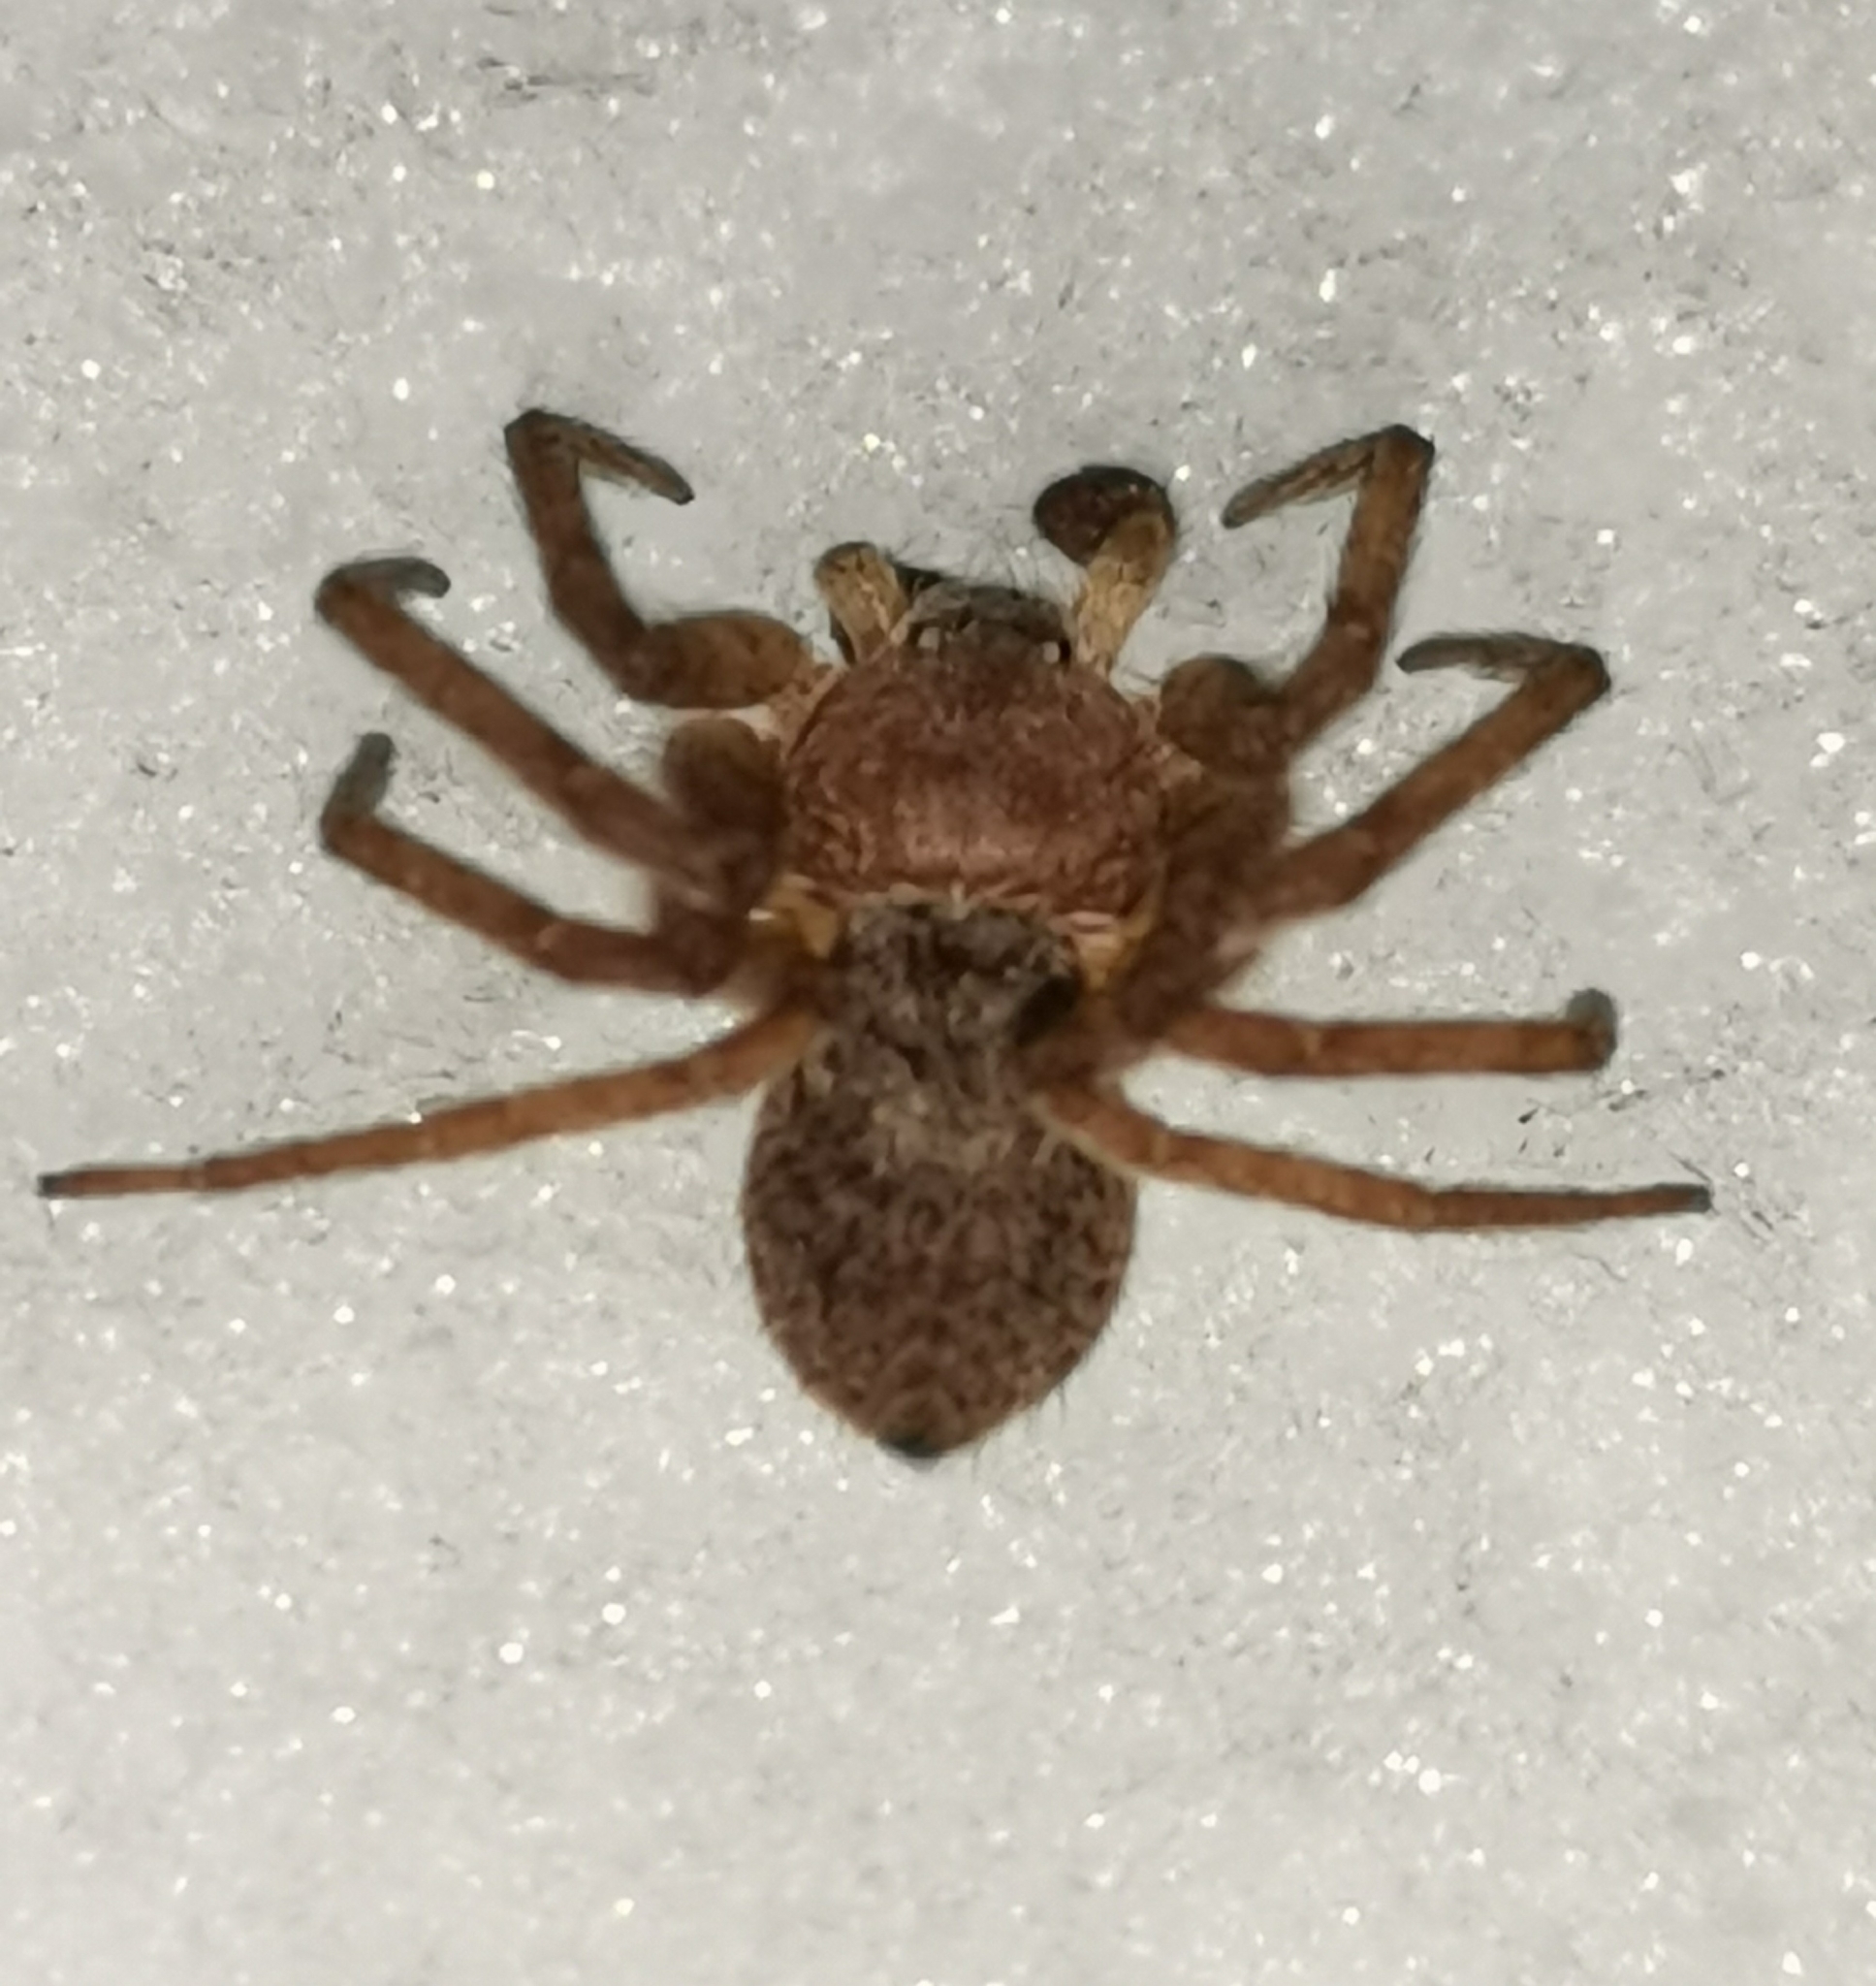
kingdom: Animalia
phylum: Arthropoda
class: Arachnida
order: Araneae
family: Philodromidae
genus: Philodromus
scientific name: Philodromus fuscomarginatus
